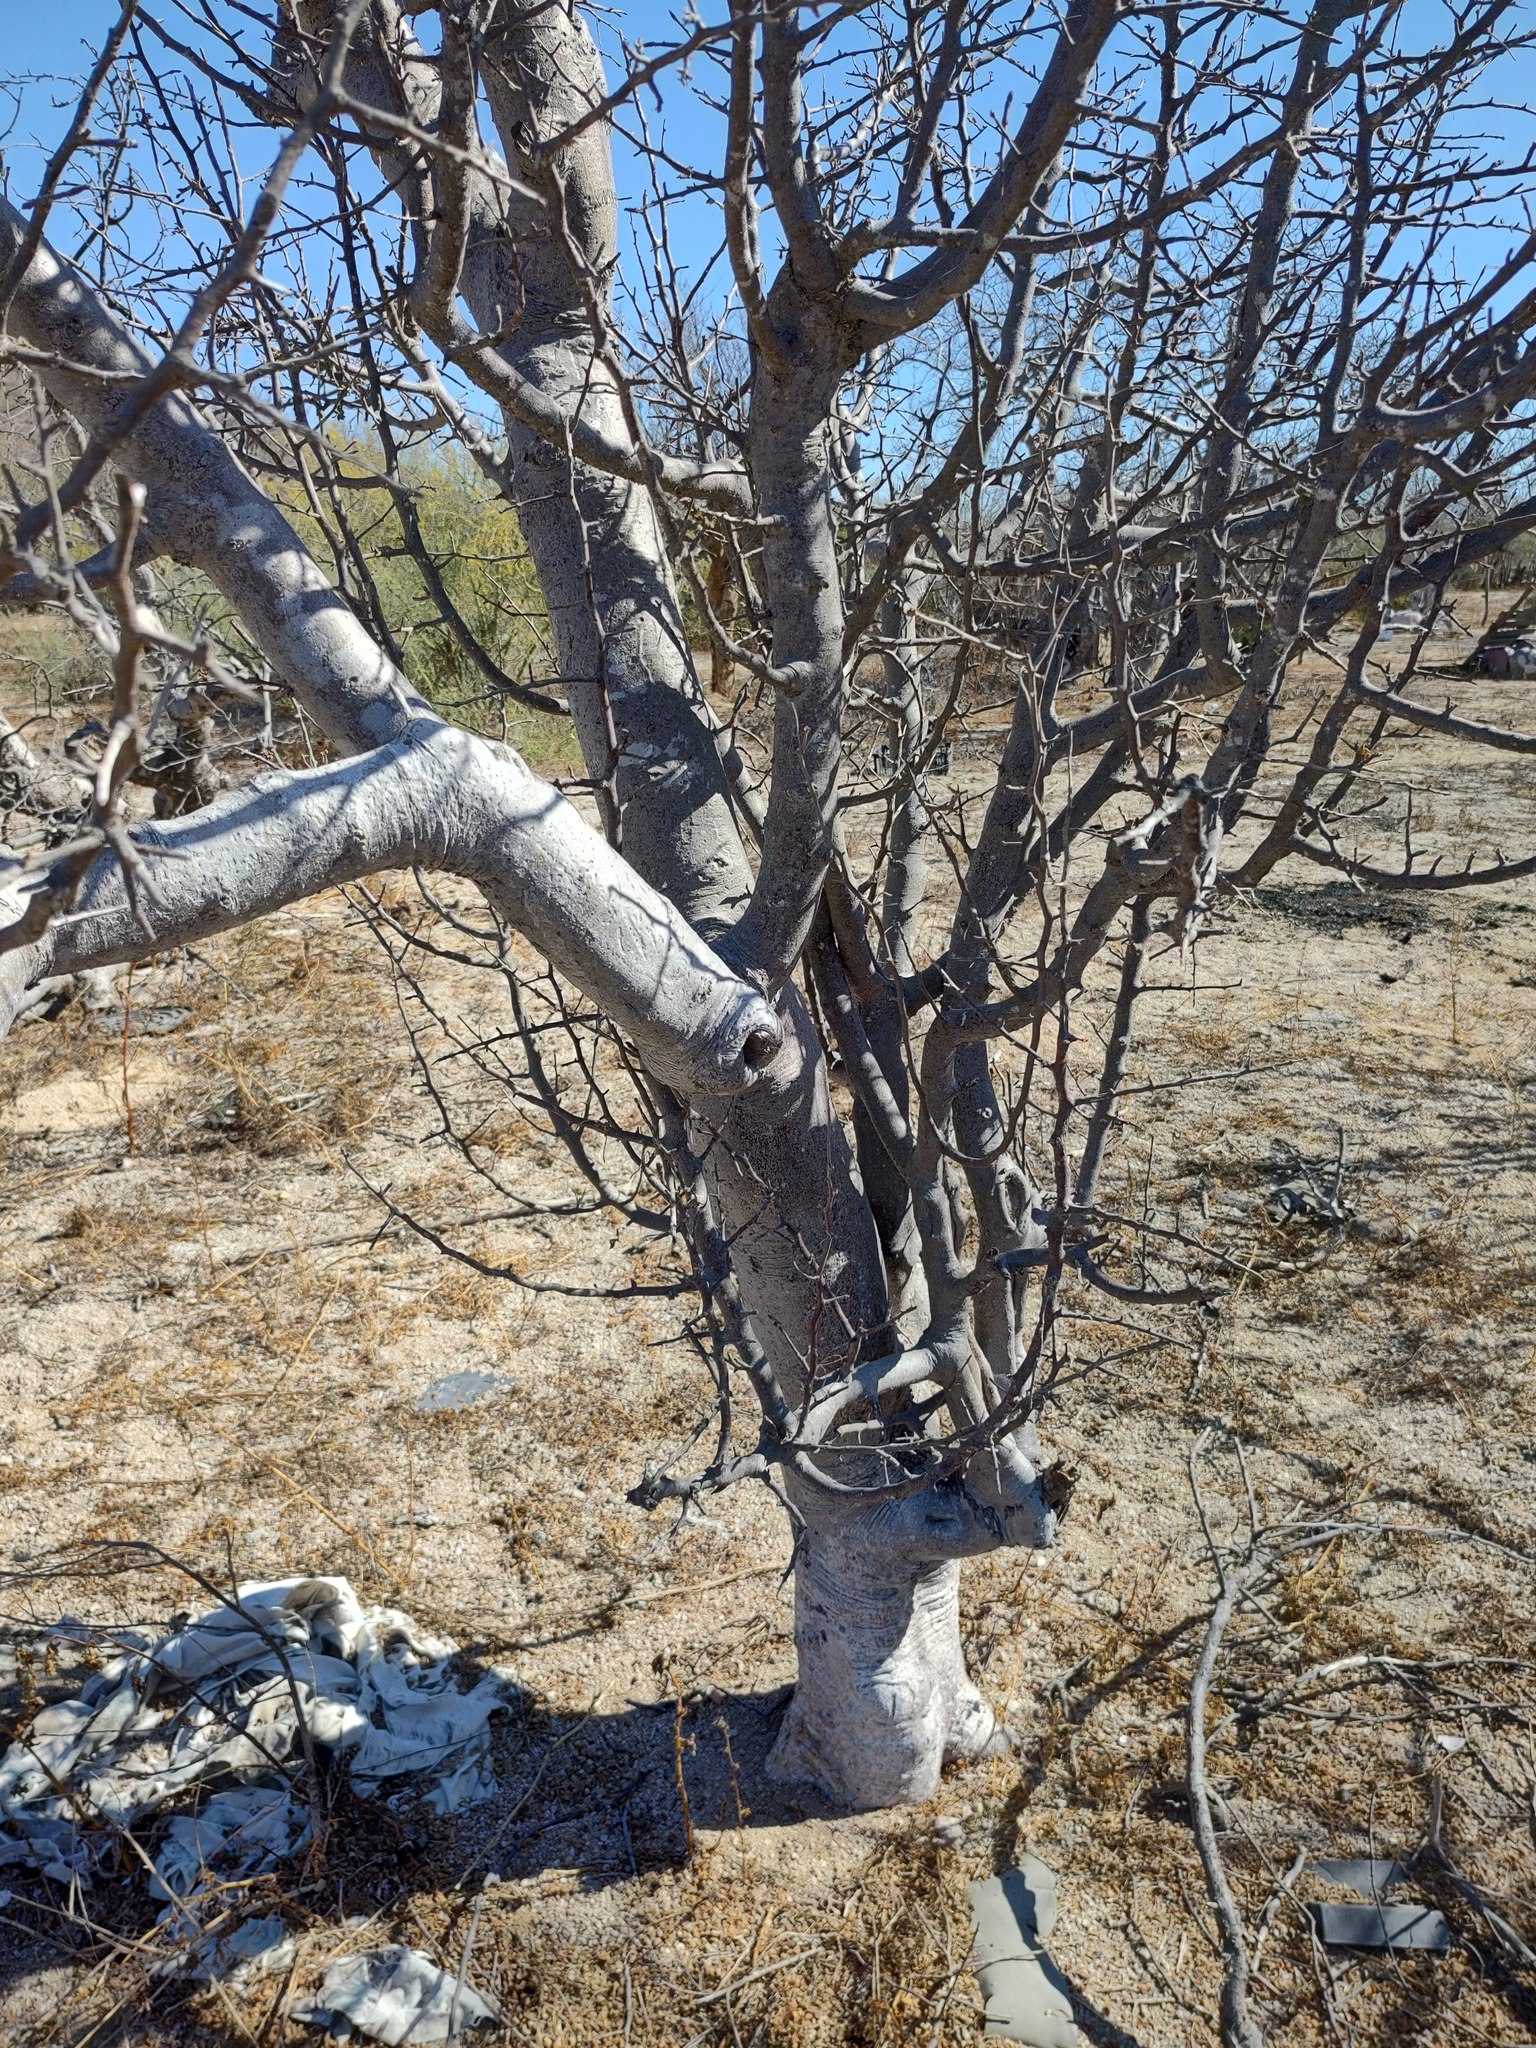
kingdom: Plantae
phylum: Tracheophyta
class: Magnoliopsida
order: Sapindales
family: Burseraceae
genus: Bursera
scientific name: Bursera filicifolia
